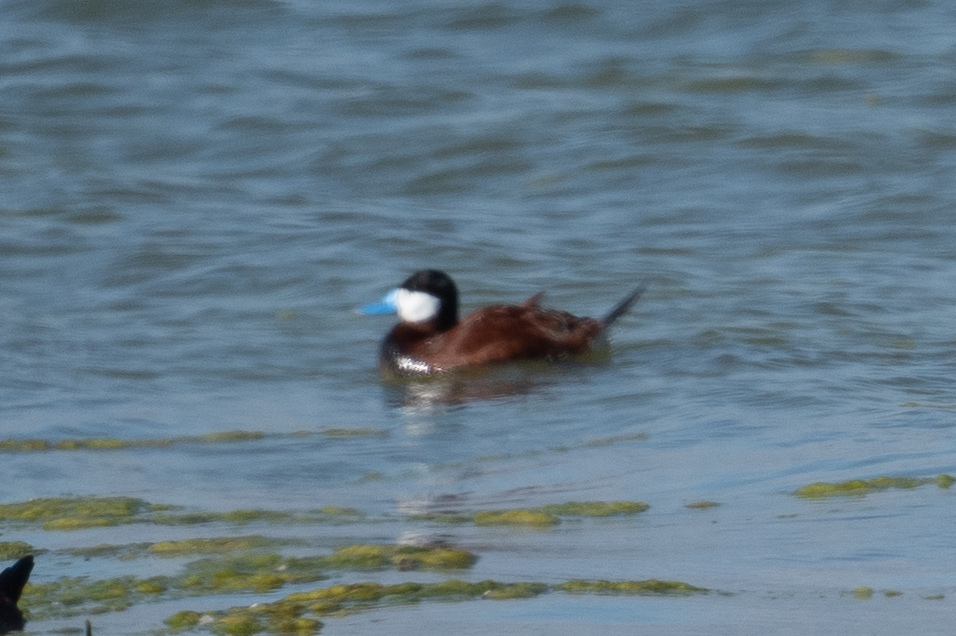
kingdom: Animalia
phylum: Chordata
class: Aves
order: Anseriformes
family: Anatidae
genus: Oxyura
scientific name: Oxyura jamaicensis
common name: Ruddy duck
